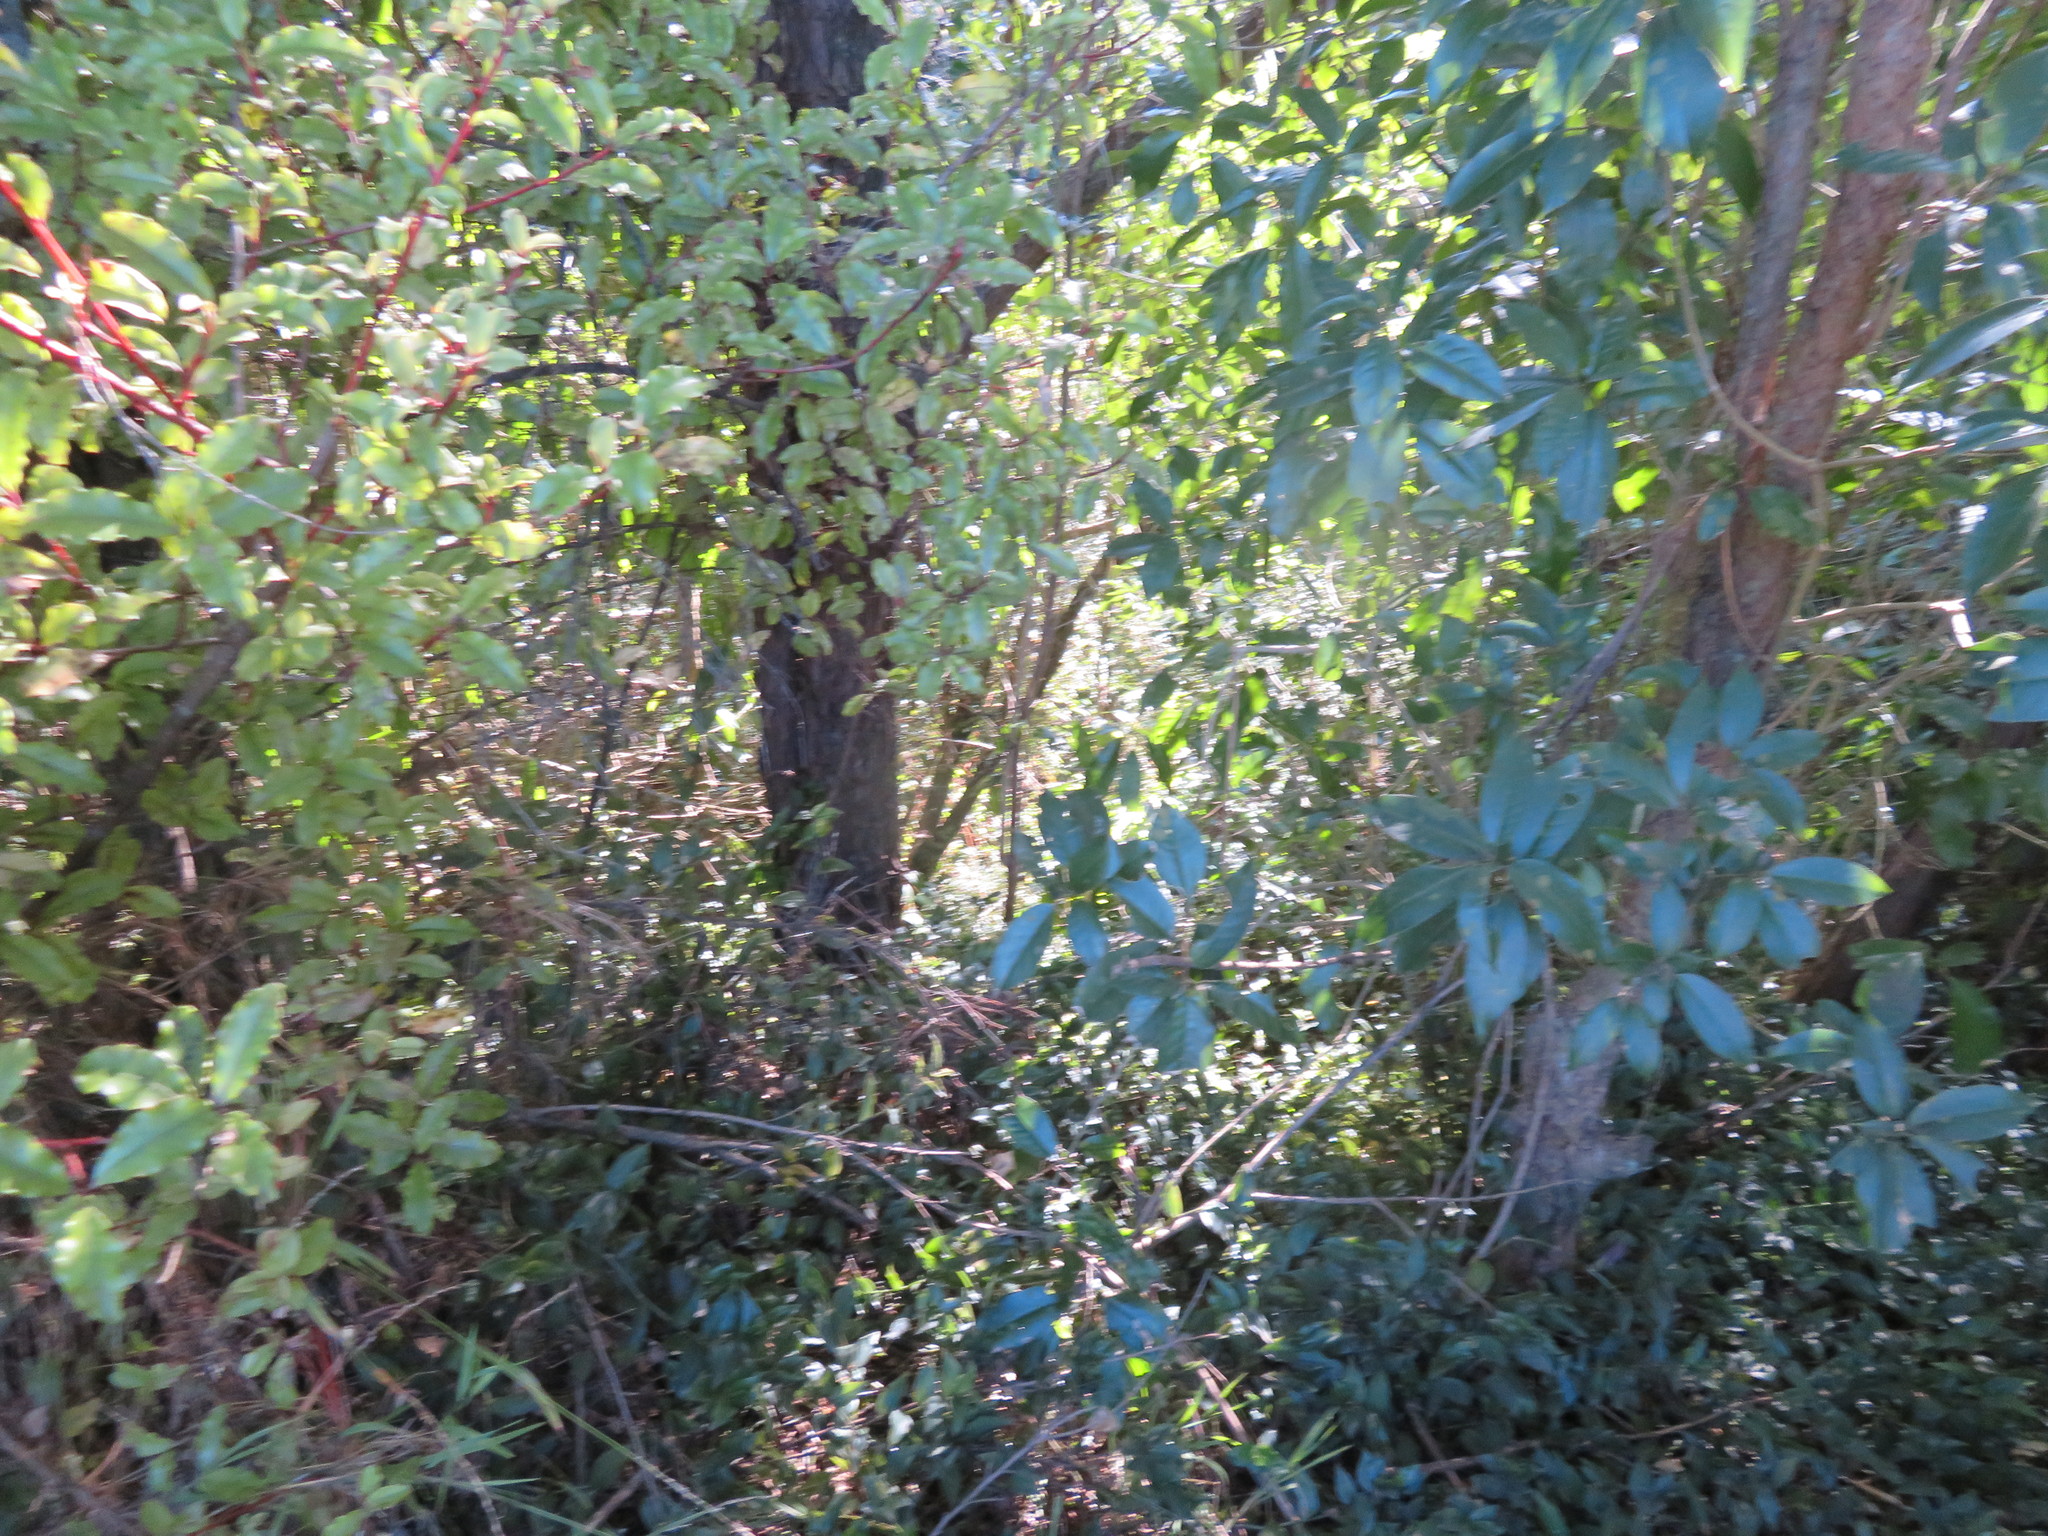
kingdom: Plantae
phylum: Tracheophyta
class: Magnoliopsida
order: Ericales
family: Primulaceae
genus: Myrsine
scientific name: Myrsine australis
